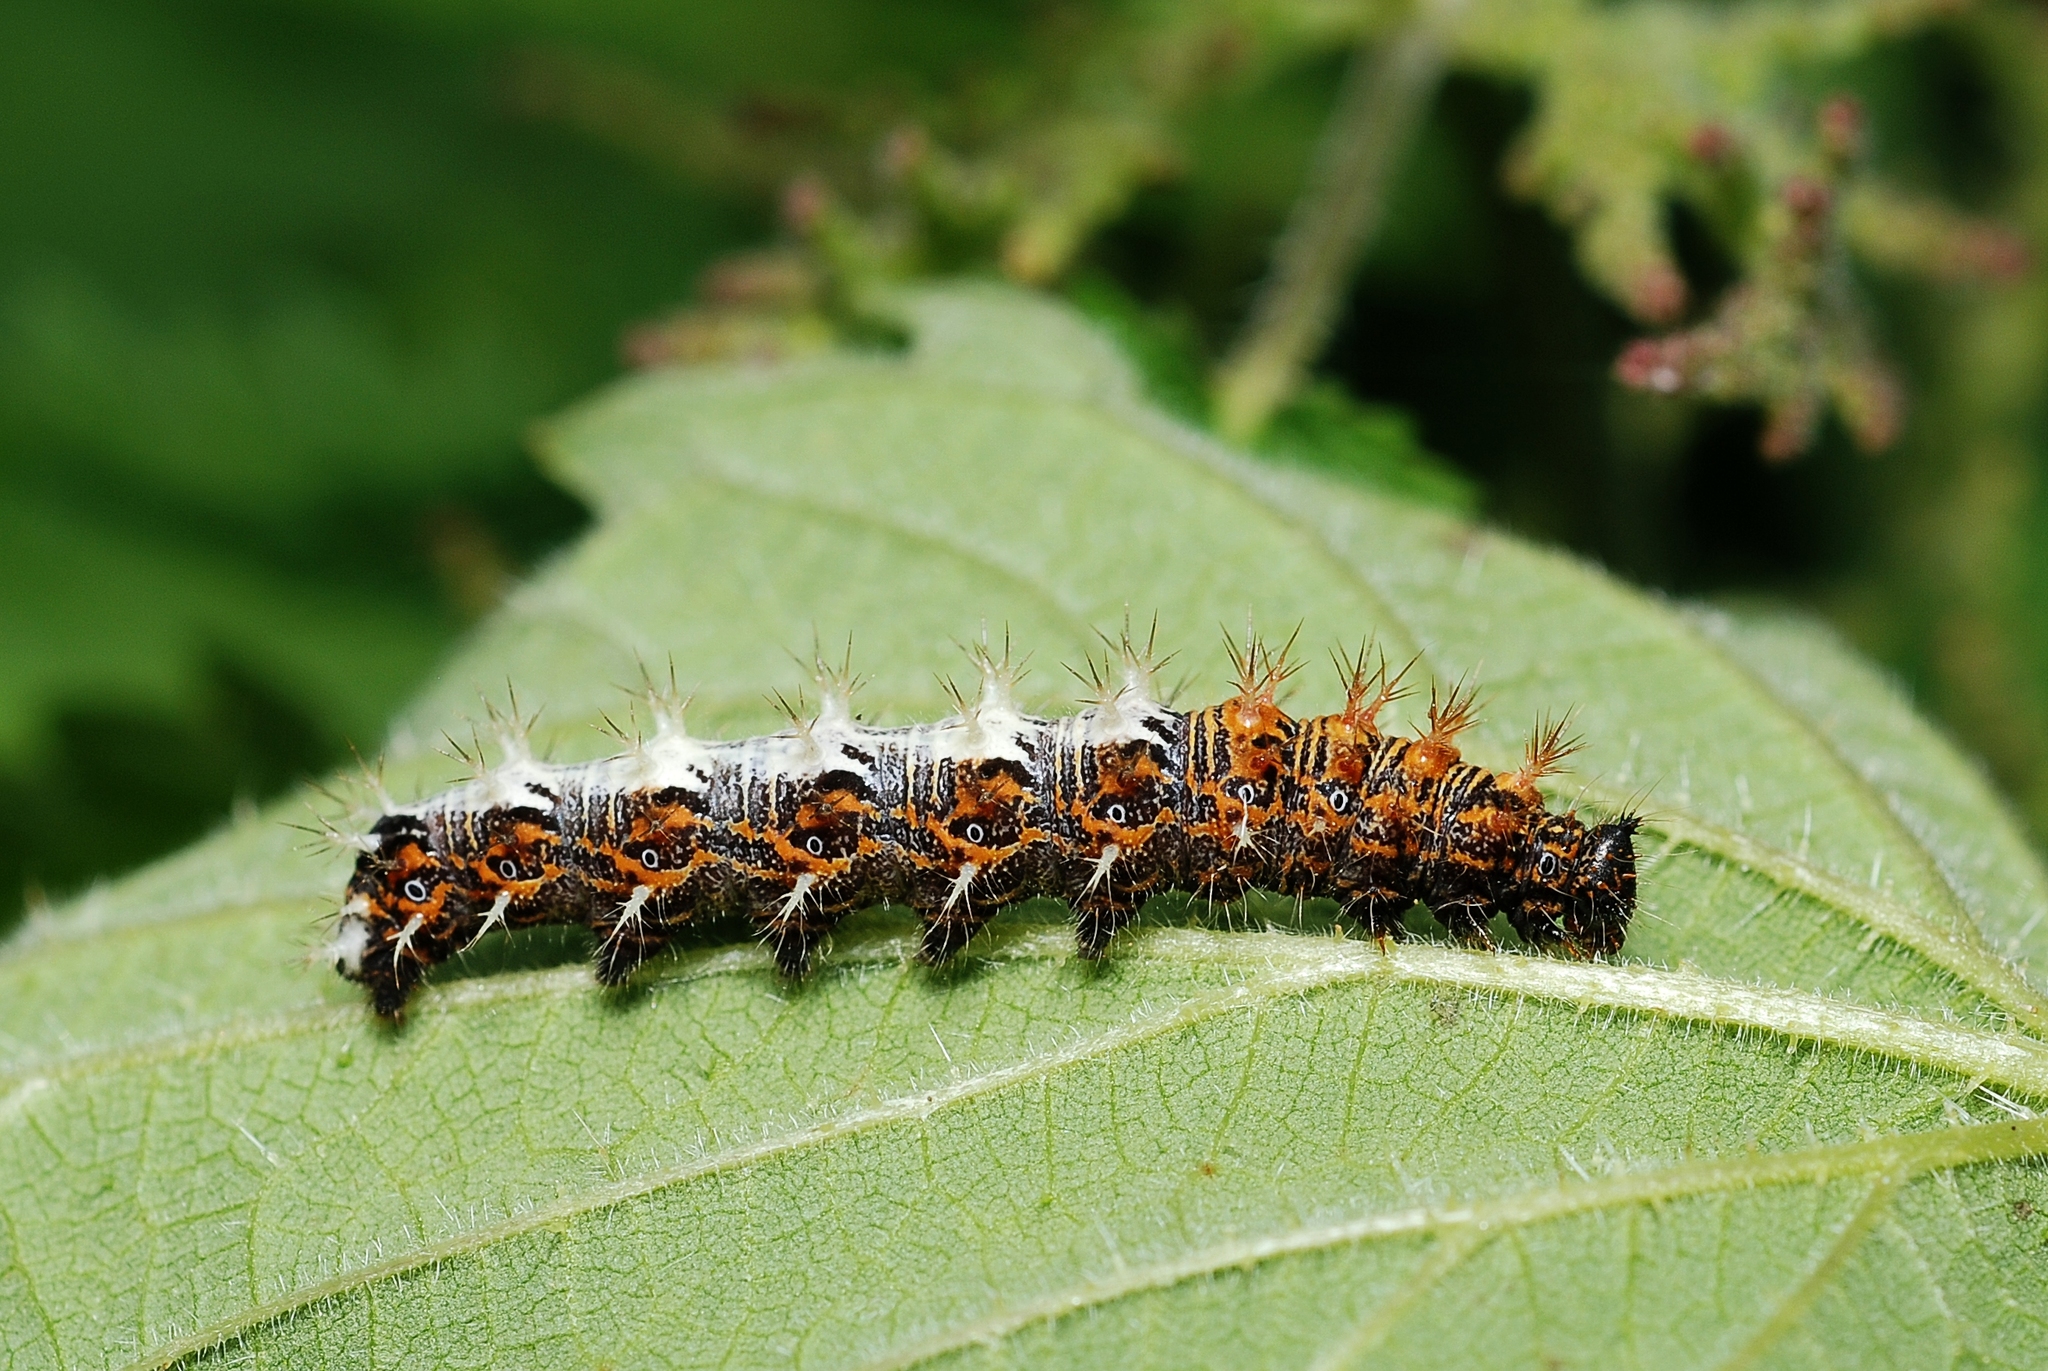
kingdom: Animalia
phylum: Arthropoda
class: Insecta
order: Lepidoptera
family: Nymphalidae
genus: Polygonia
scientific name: Polygonia c-album
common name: Comma
